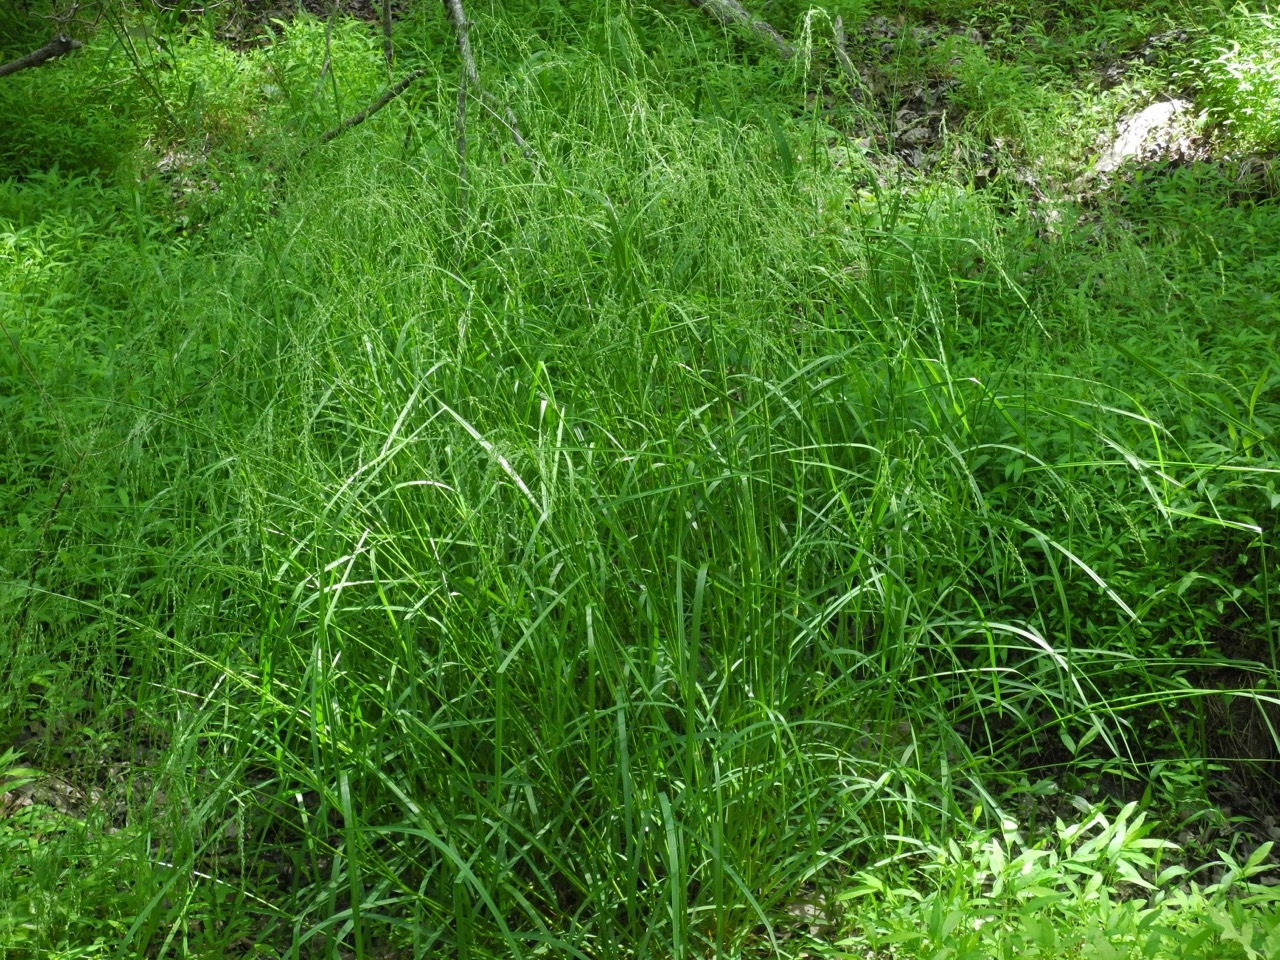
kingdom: Plantae
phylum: Tracheophyta
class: Liliopsida
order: Poales
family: Poaceae
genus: Glyceria
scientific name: Glyceria striata
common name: Fowl manna grass
